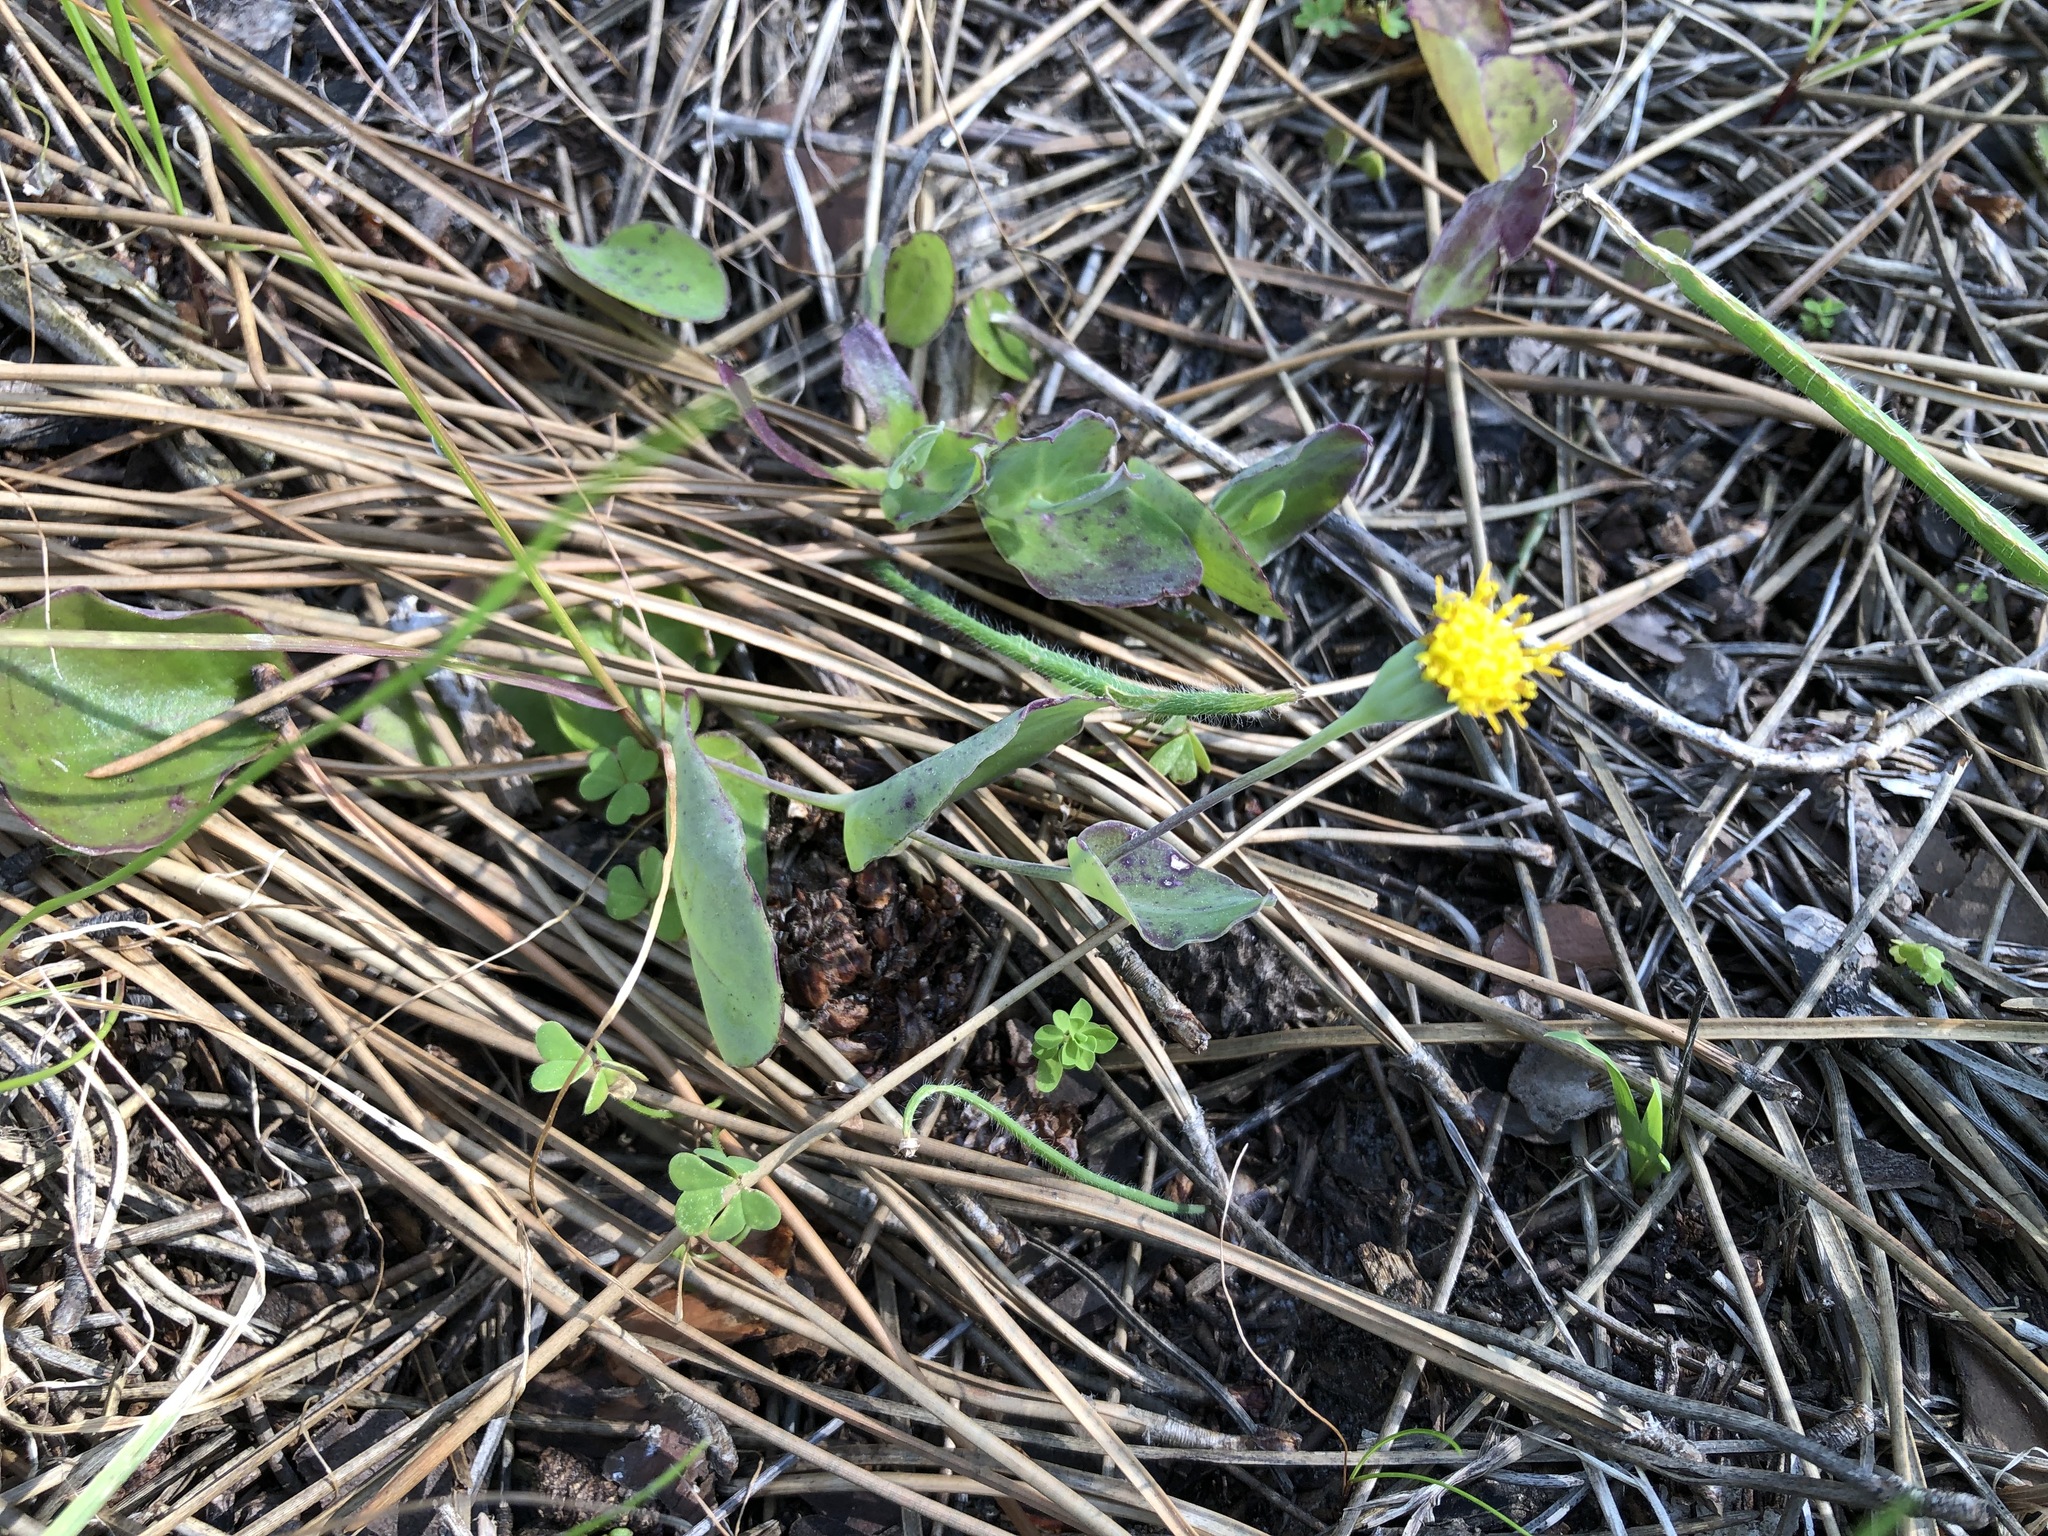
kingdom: Plantae
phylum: Tracheophyta
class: Magnoliopsida
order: Asterales
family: Asteraceae
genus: Othonna
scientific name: Othonna undulosa
